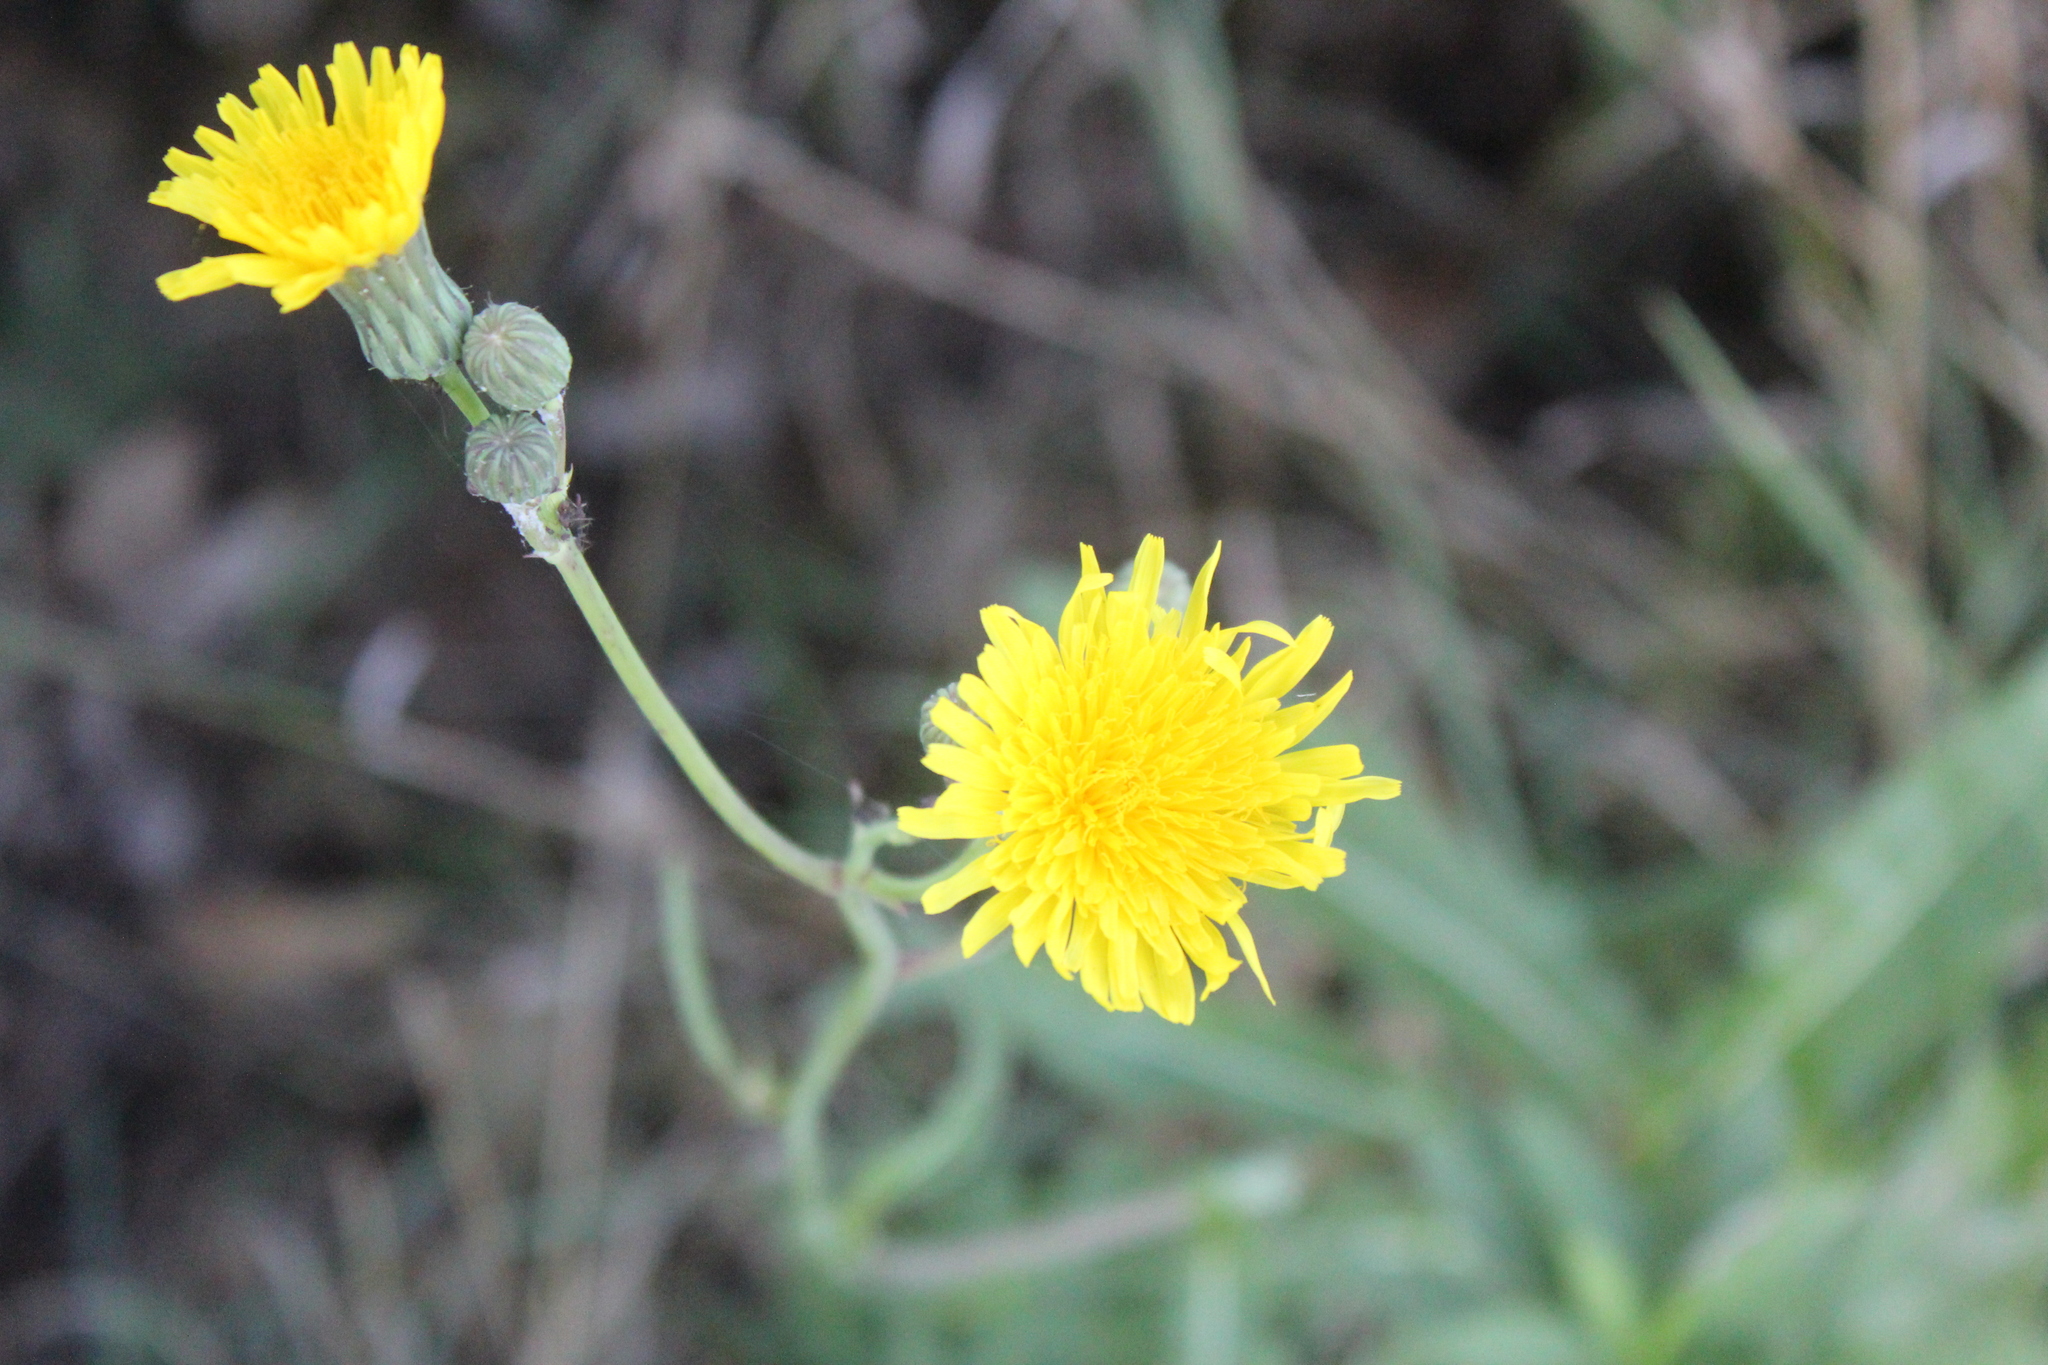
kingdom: Plantae
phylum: Tracheophyta
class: Magnoliopsida
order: Asterales
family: Asteraceae
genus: Sonchus
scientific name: Sonchus arvensis
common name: Perennial sow-thistle
